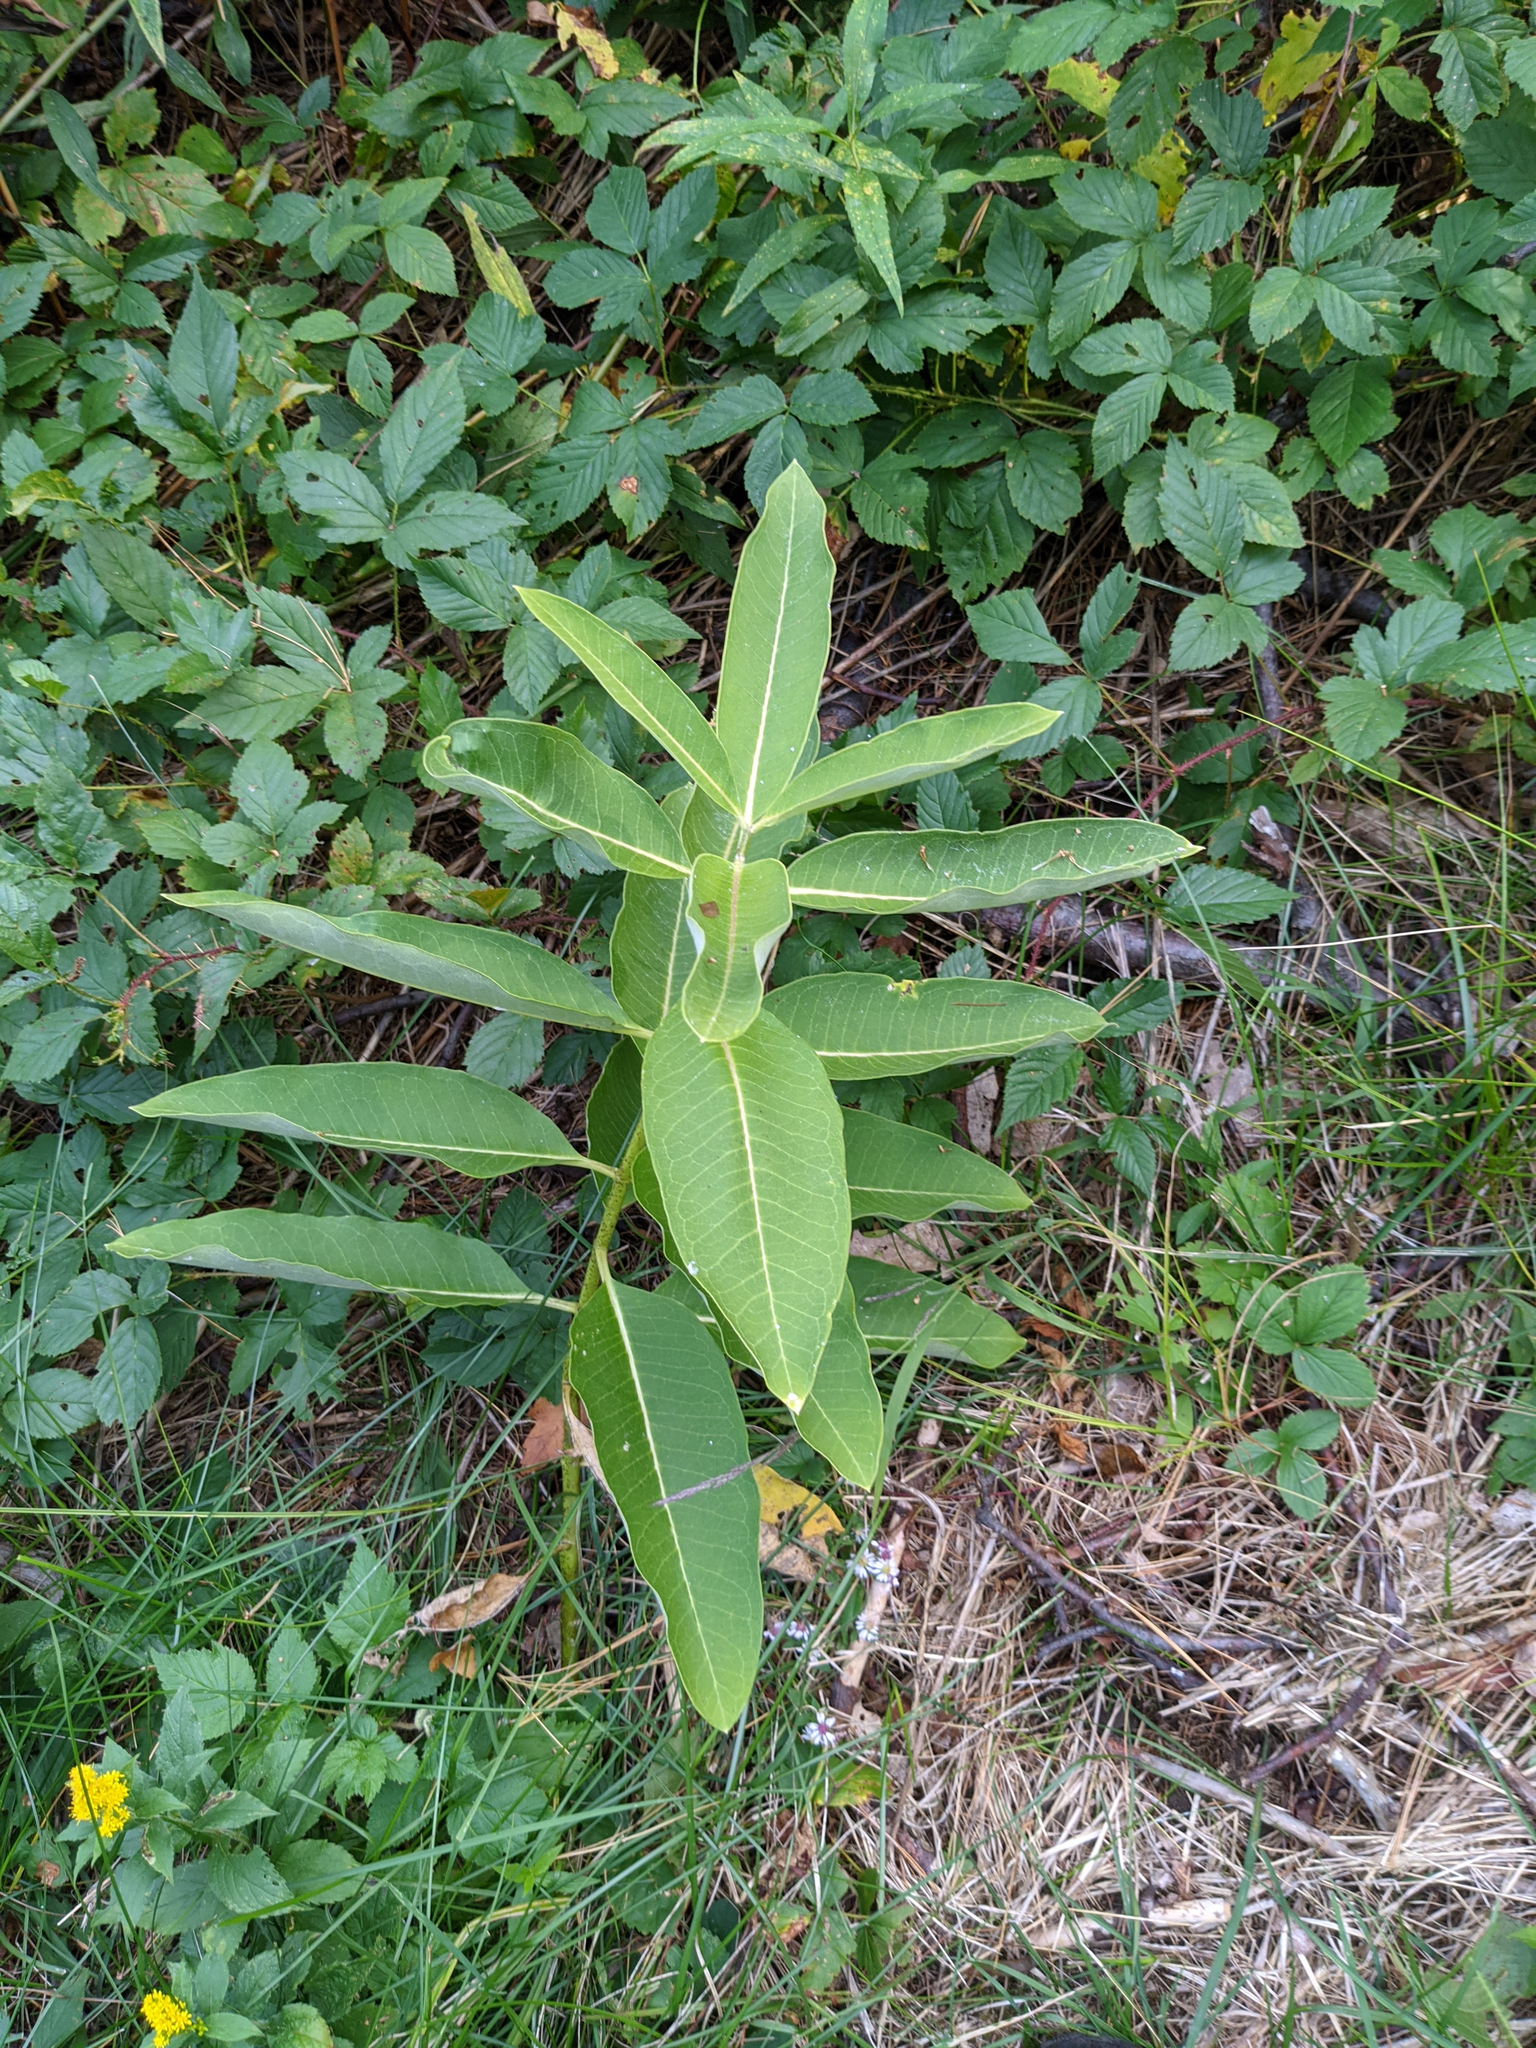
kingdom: Plantae
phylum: Tracheophyta
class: Magnoliopsida
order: Gentianales
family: Apocynaceae
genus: Asclepias
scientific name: Asclepias syriaca
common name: Common milkweed
